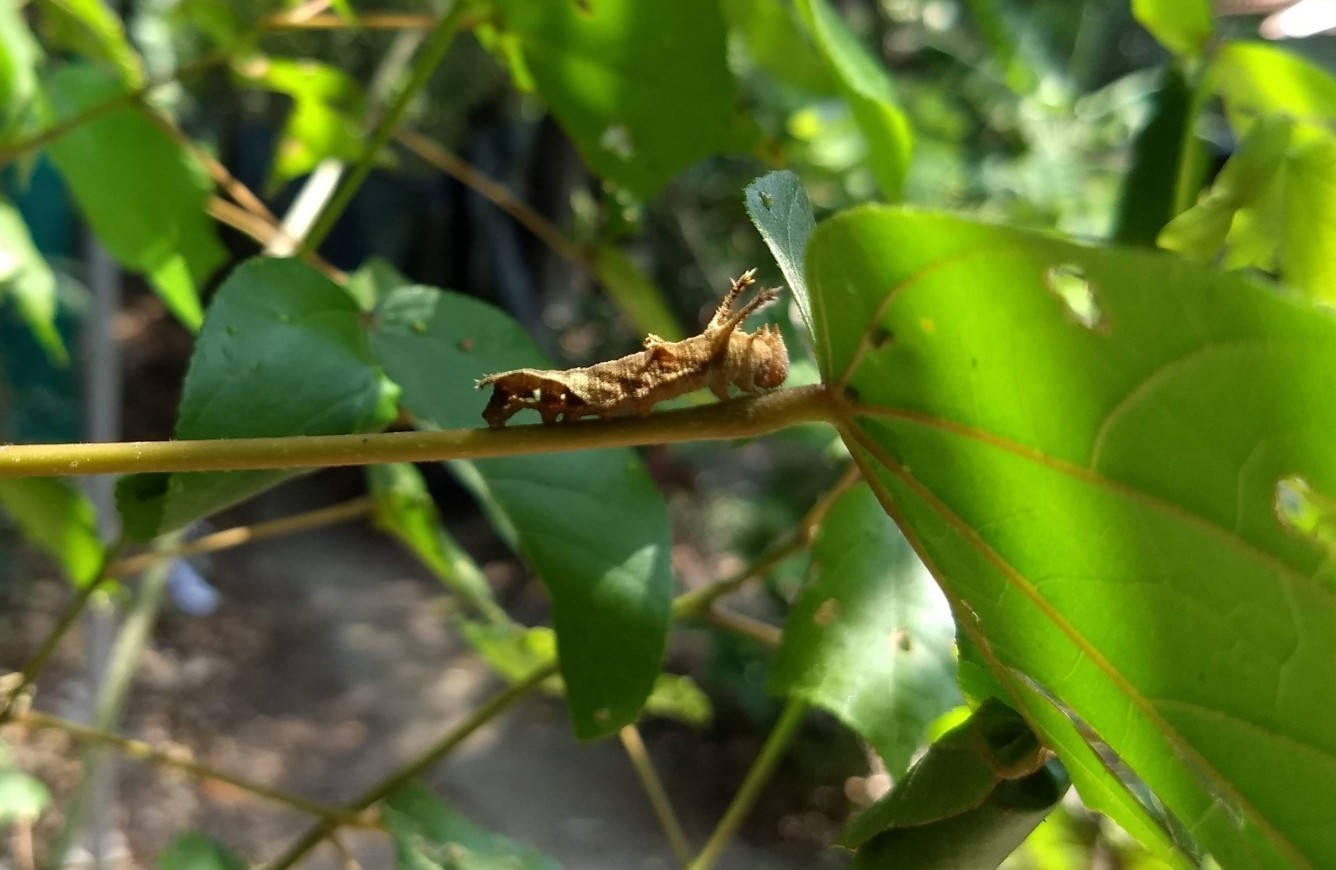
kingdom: Animalia
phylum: Arthropoda
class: Insecta
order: Lepidoptera
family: Nymphalidae
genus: Neptis
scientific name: Neptis hylas
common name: Common sailer
